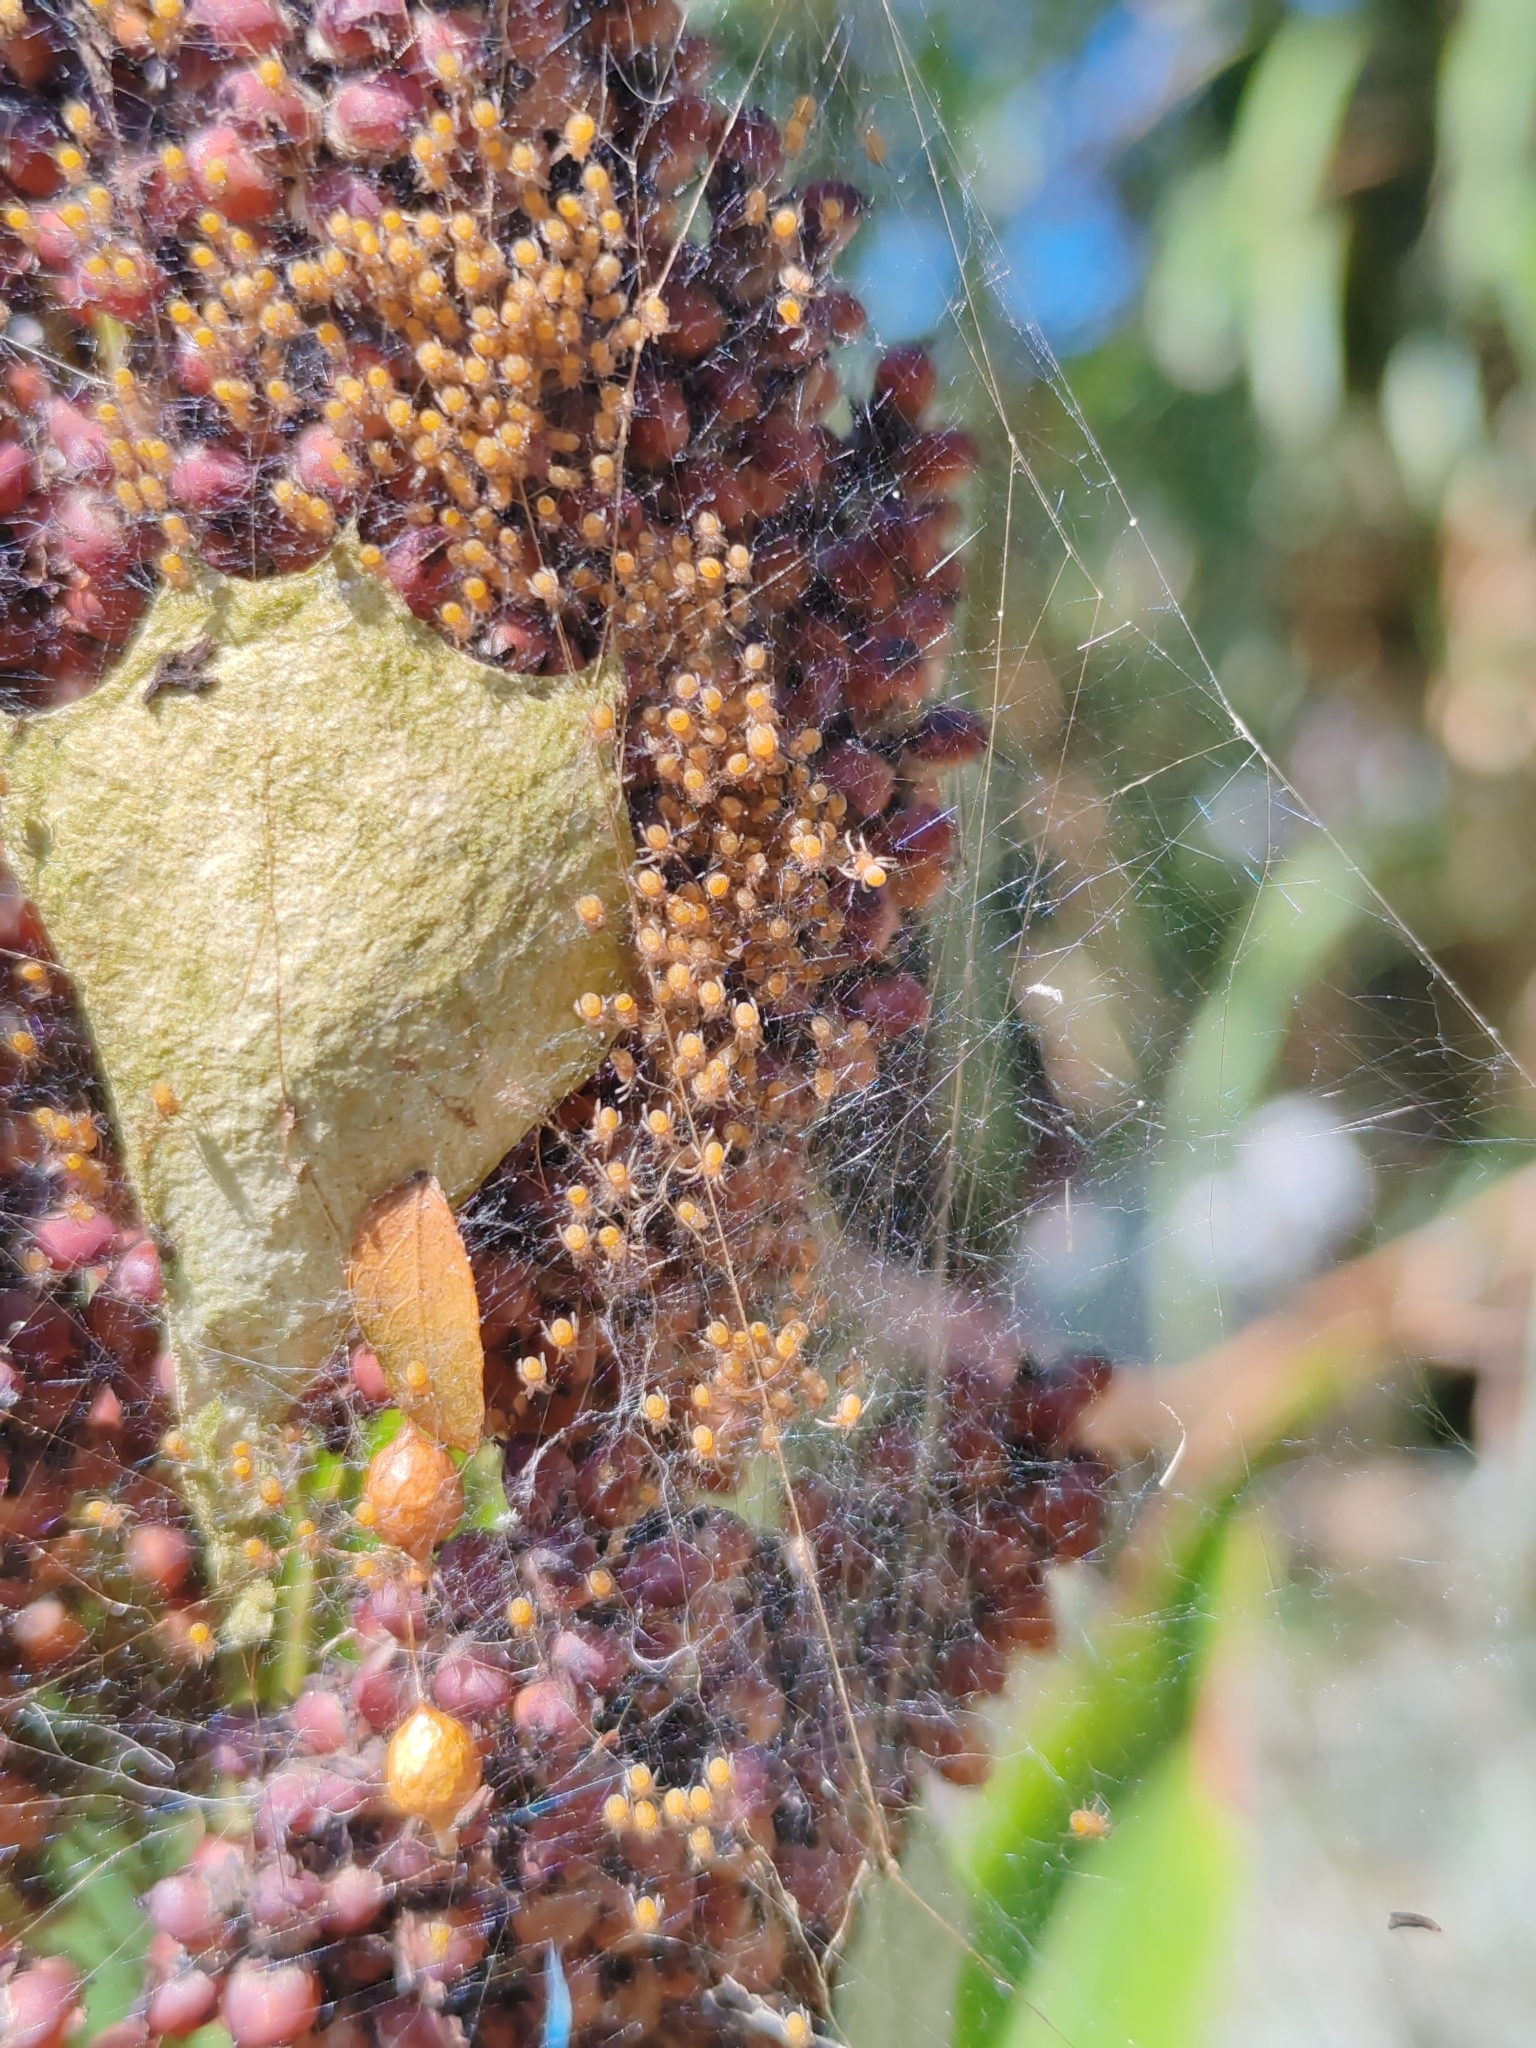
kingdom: Animalia
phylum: Arthropoda
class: Arachnida
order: Araneae
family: Araneidae
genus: Argiope
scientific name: Argiope argentata
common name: Orb weavers
